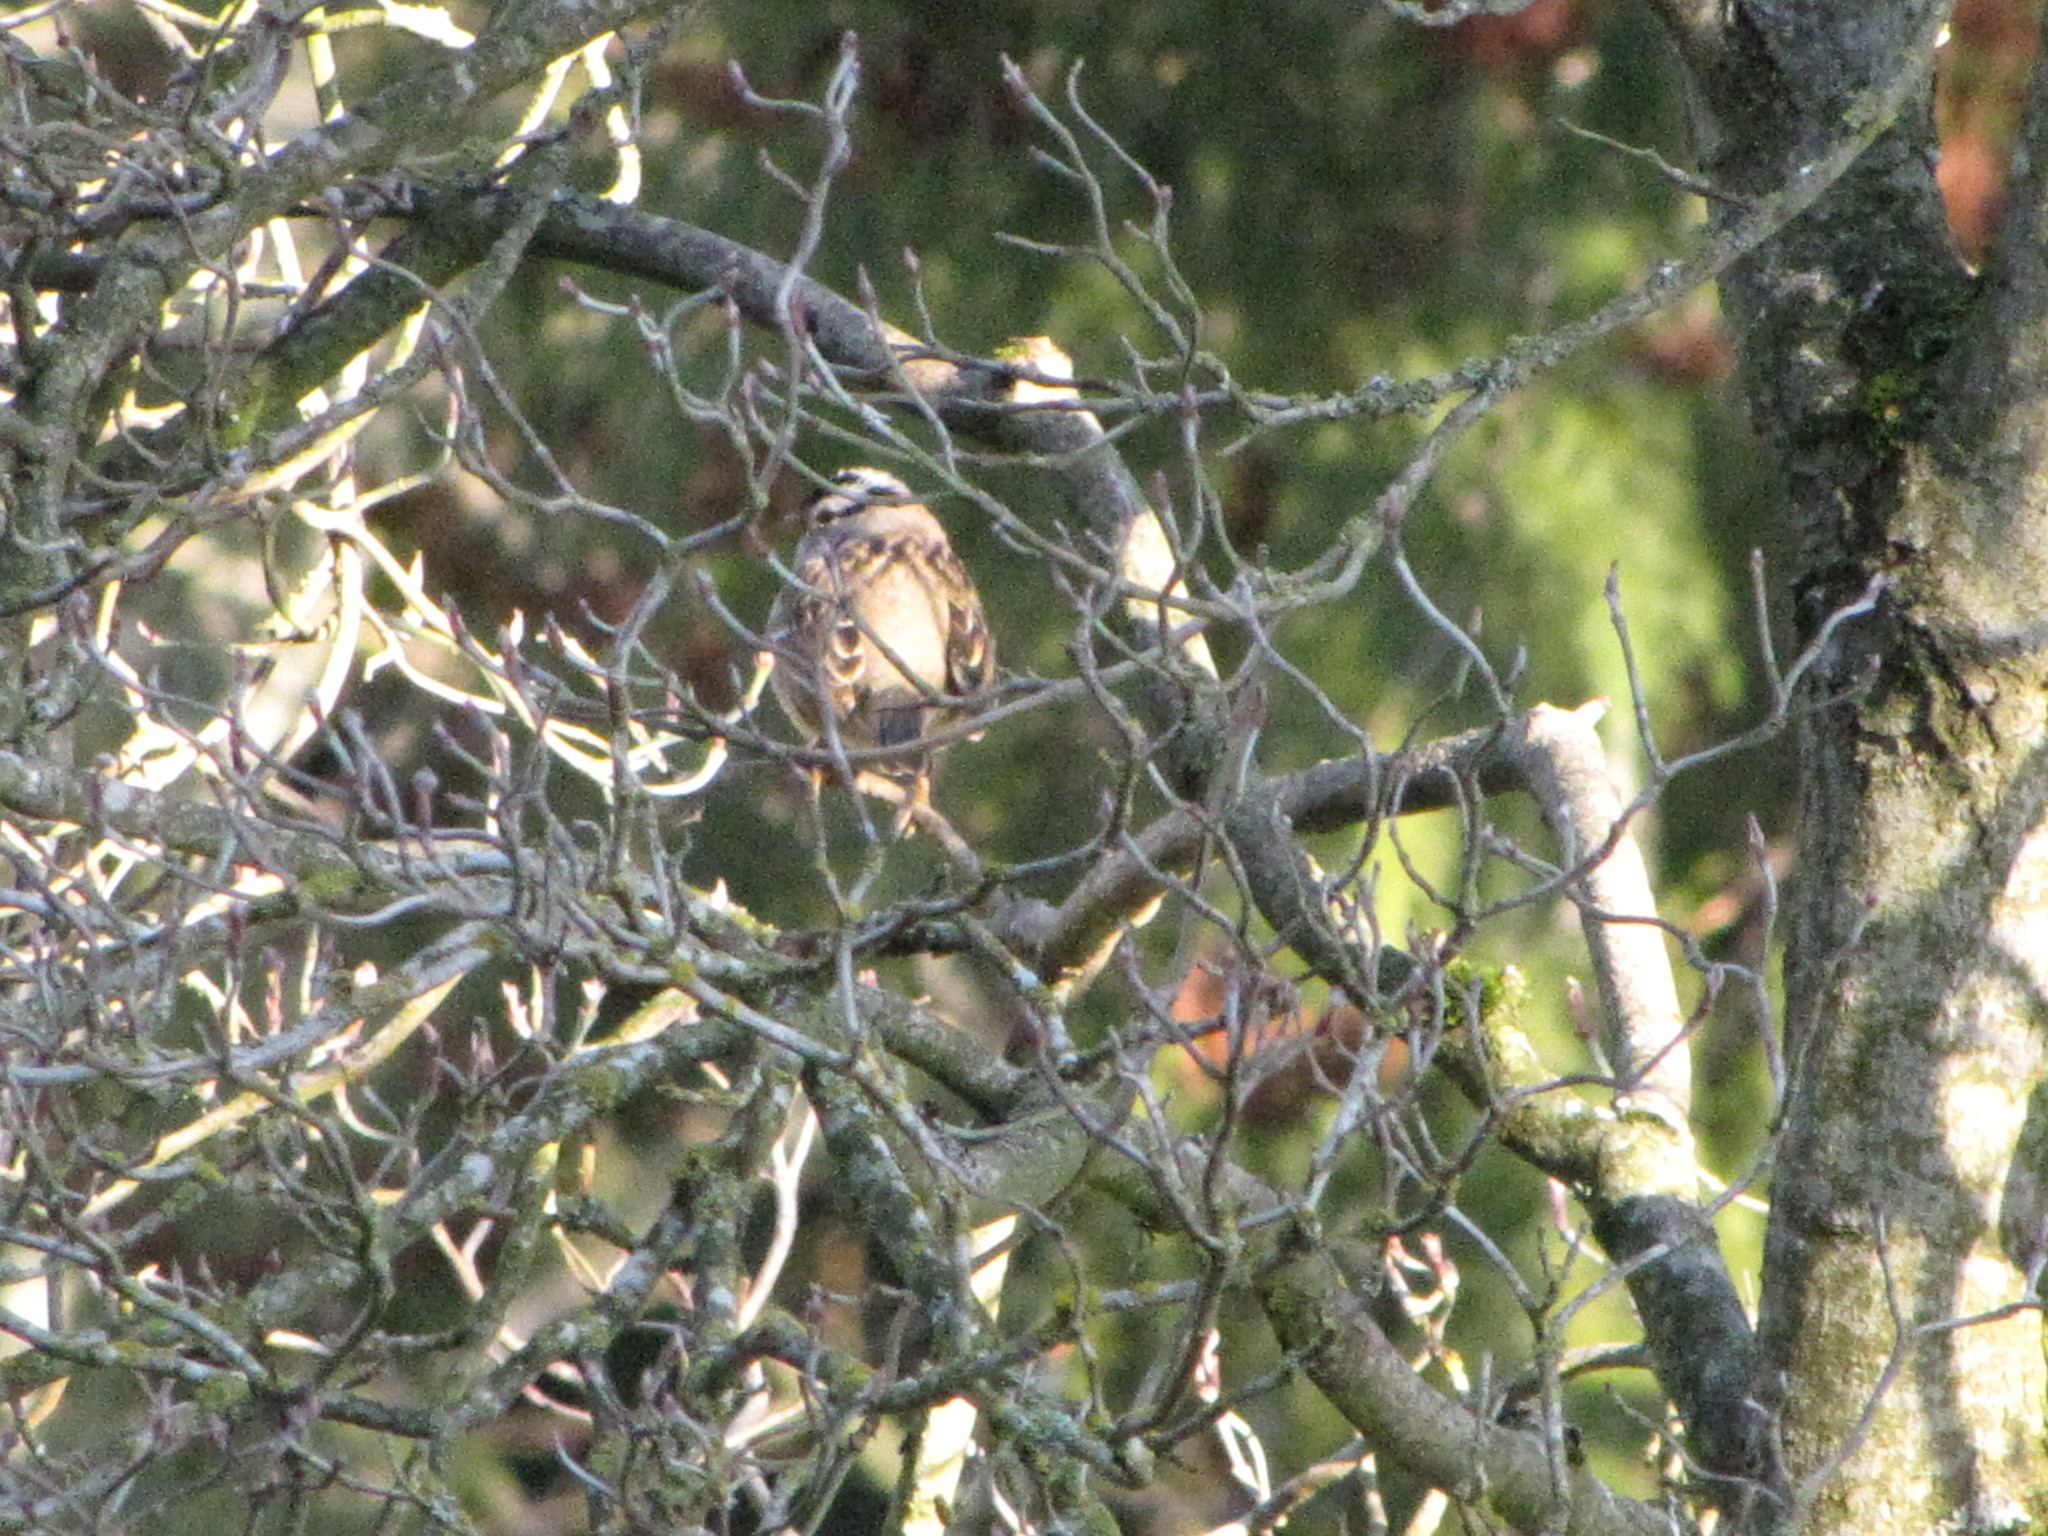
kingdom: Animalia
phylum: Chordata
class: Aves
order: Passeriformes
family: Passerellidae
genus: Zonotrichia
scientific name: Zonotrichia leucophrys
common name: White-crowned sparrow
